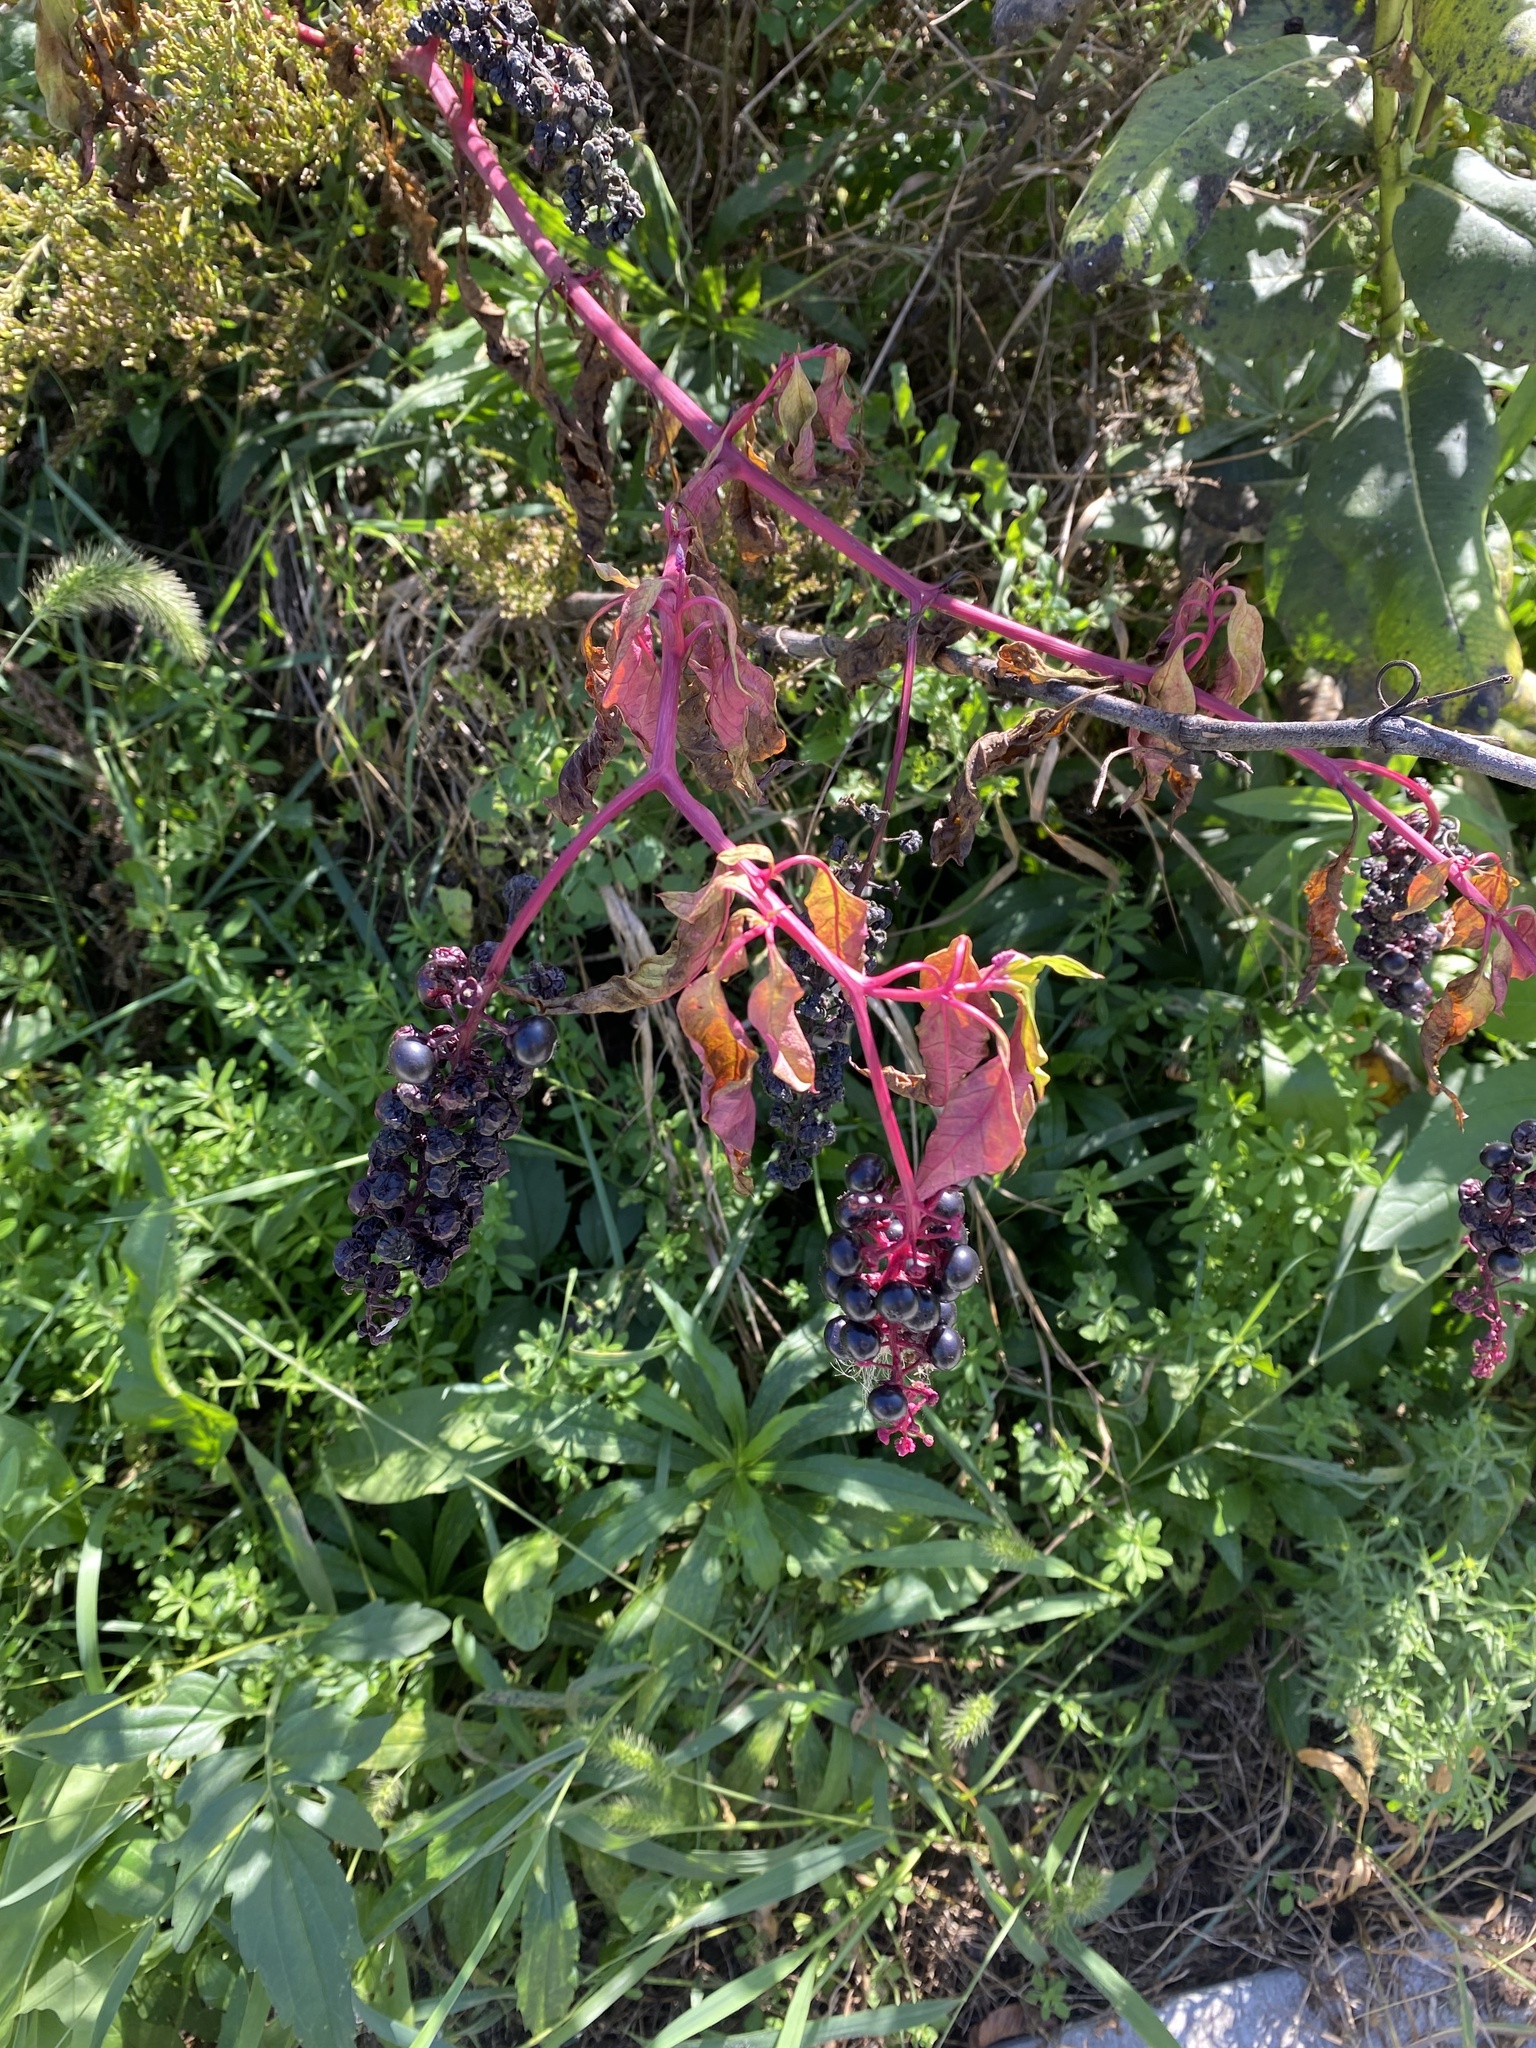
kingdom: Plantae
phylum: Tracheophyta
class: Magnoliopsida
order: Caryophyllales
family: Phytolaccaceae
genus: Phytolacca
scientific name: Phytolacca americana
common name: American pokeweed
